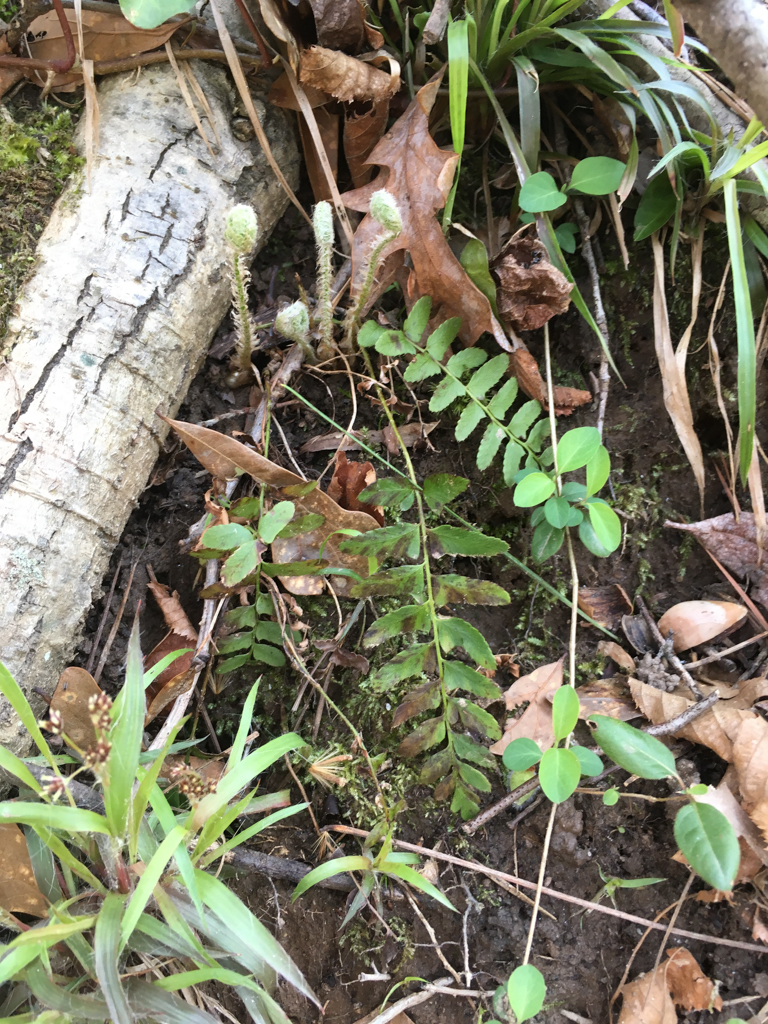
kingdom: Plantae
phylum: Tracheophyta
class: Polypodiopsida
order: Polypodiales
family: Dryopteridaceae
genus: Polystichum
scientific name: Polystichum acrostichoides
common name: Christmas fern
